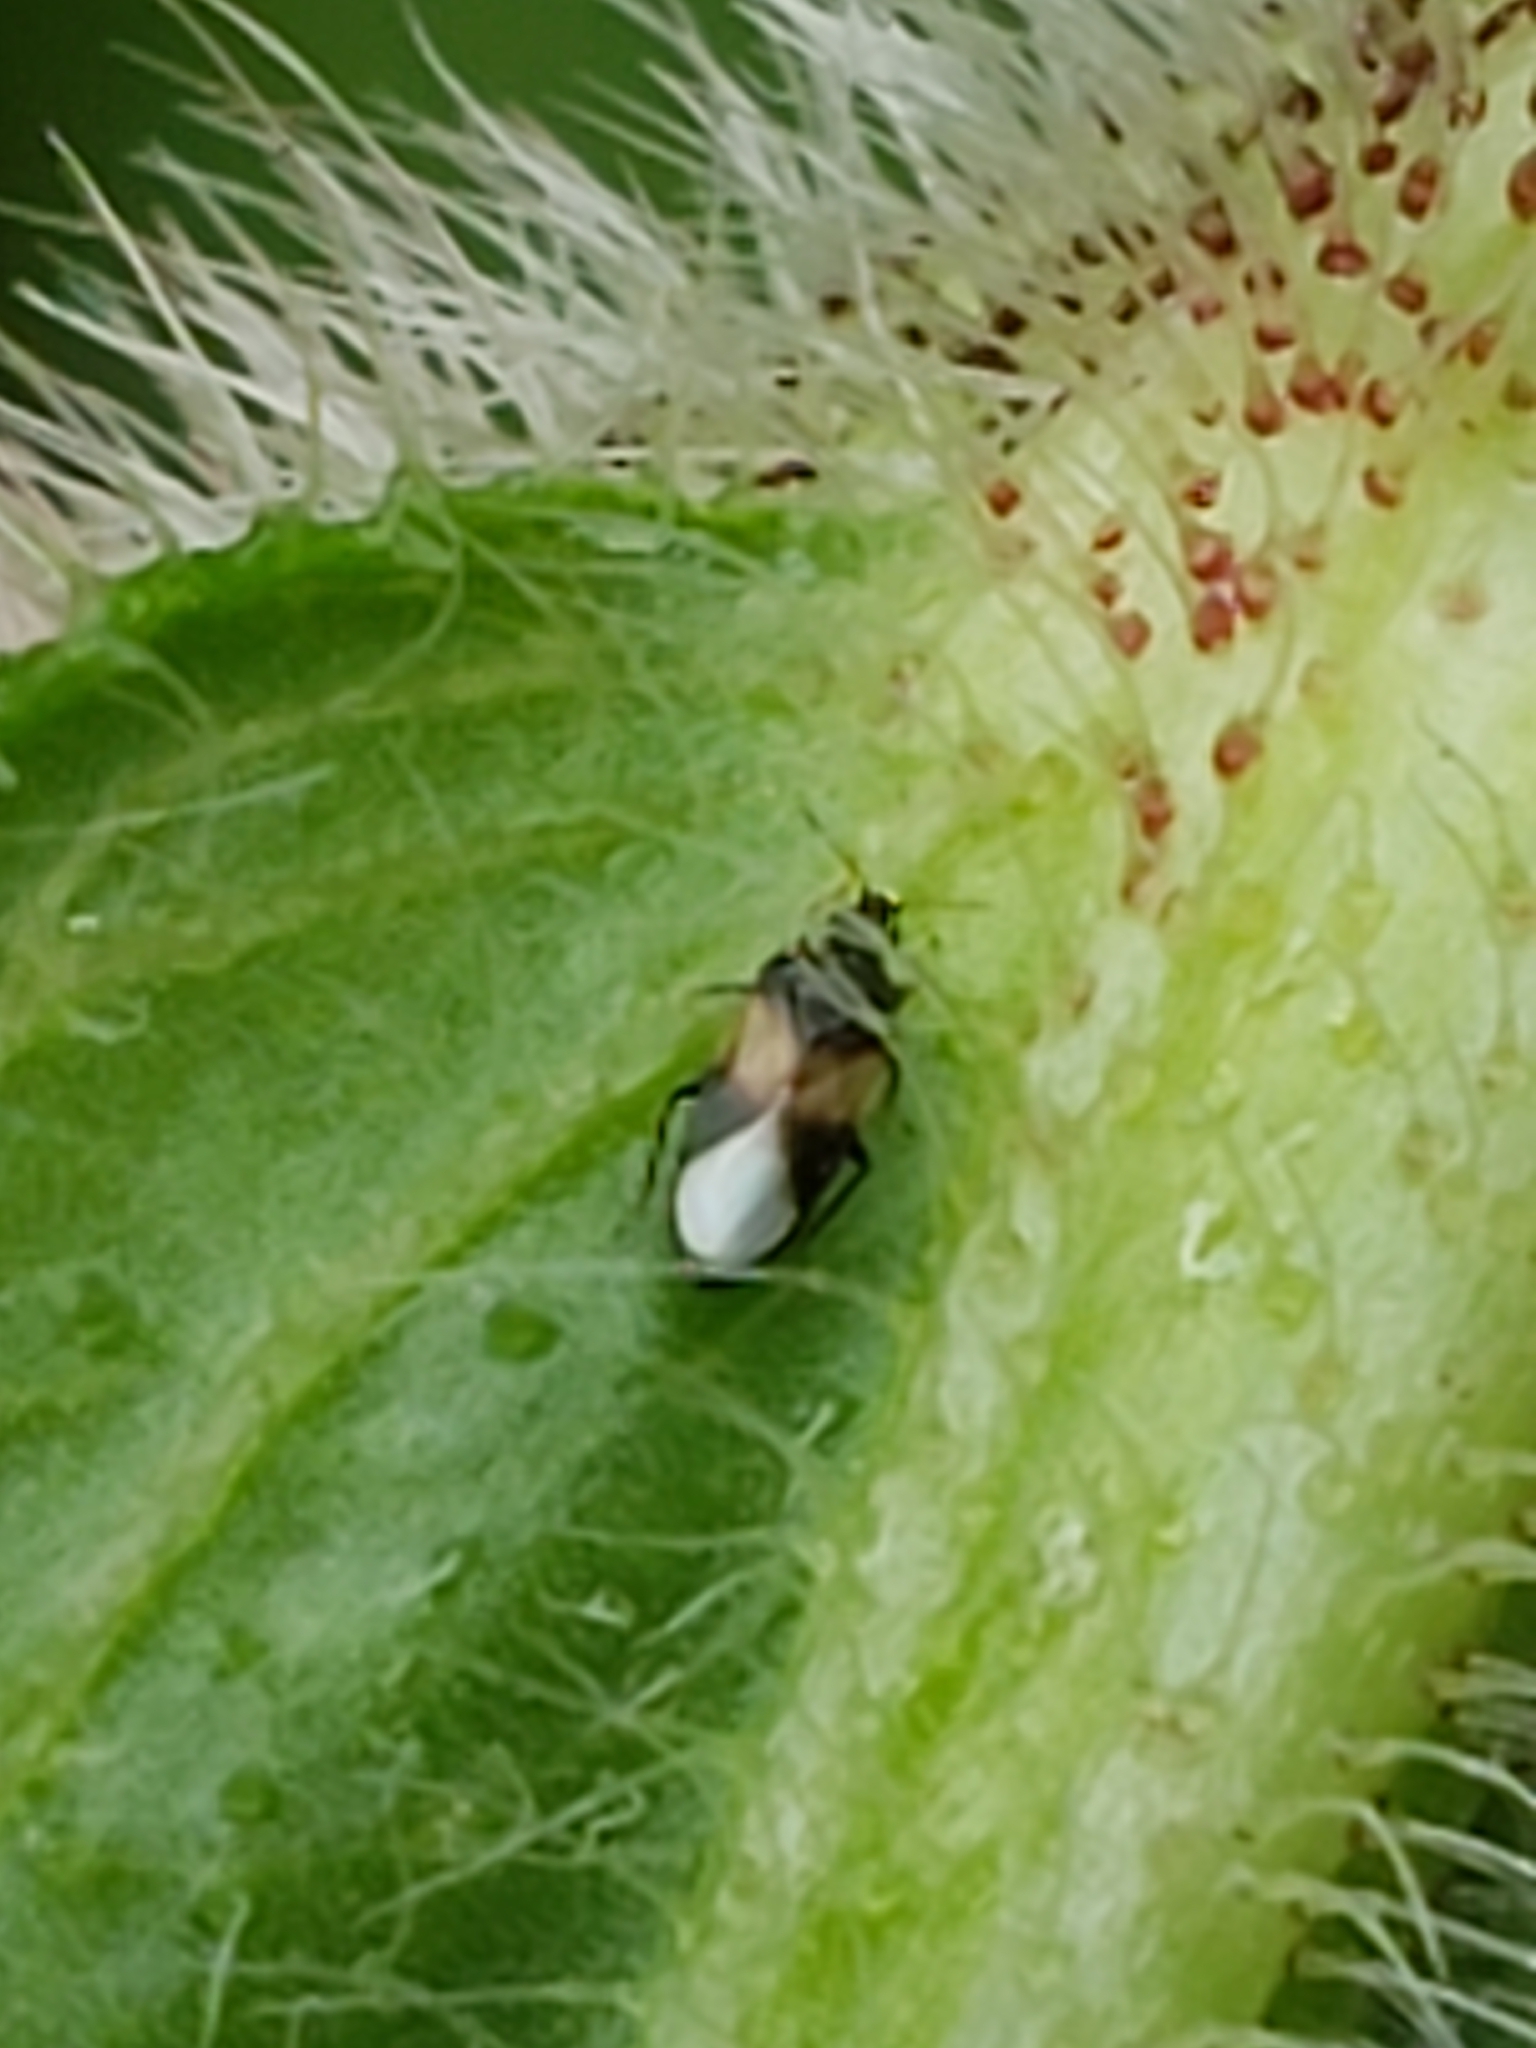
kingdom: Animalia
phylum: Arthropoda
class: Insecta
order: Hemiptera
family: Anthocoridae
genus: Orius
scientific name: Orius insidiosus
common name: Insidious flower bug
